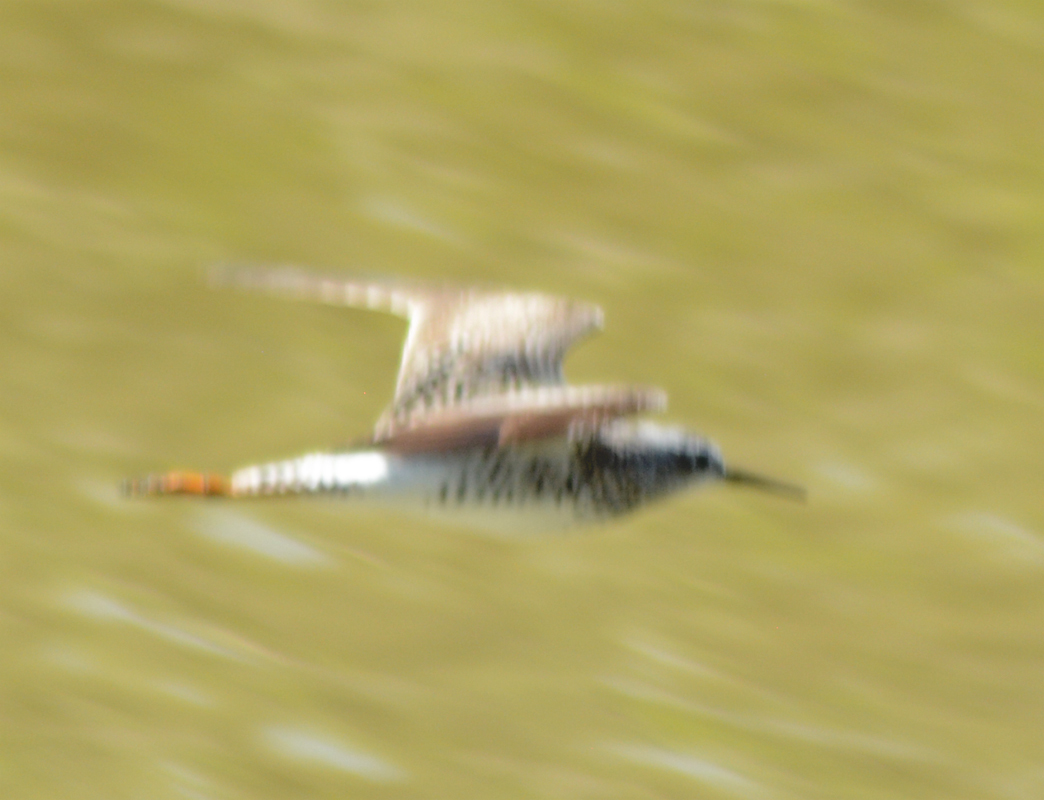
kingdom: Animalia
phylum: Chordata
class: Aves
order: Charadriiformes
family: Scolopacidae
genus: Actitis
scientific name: Actitis macularius
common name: Spotted sandpiper
